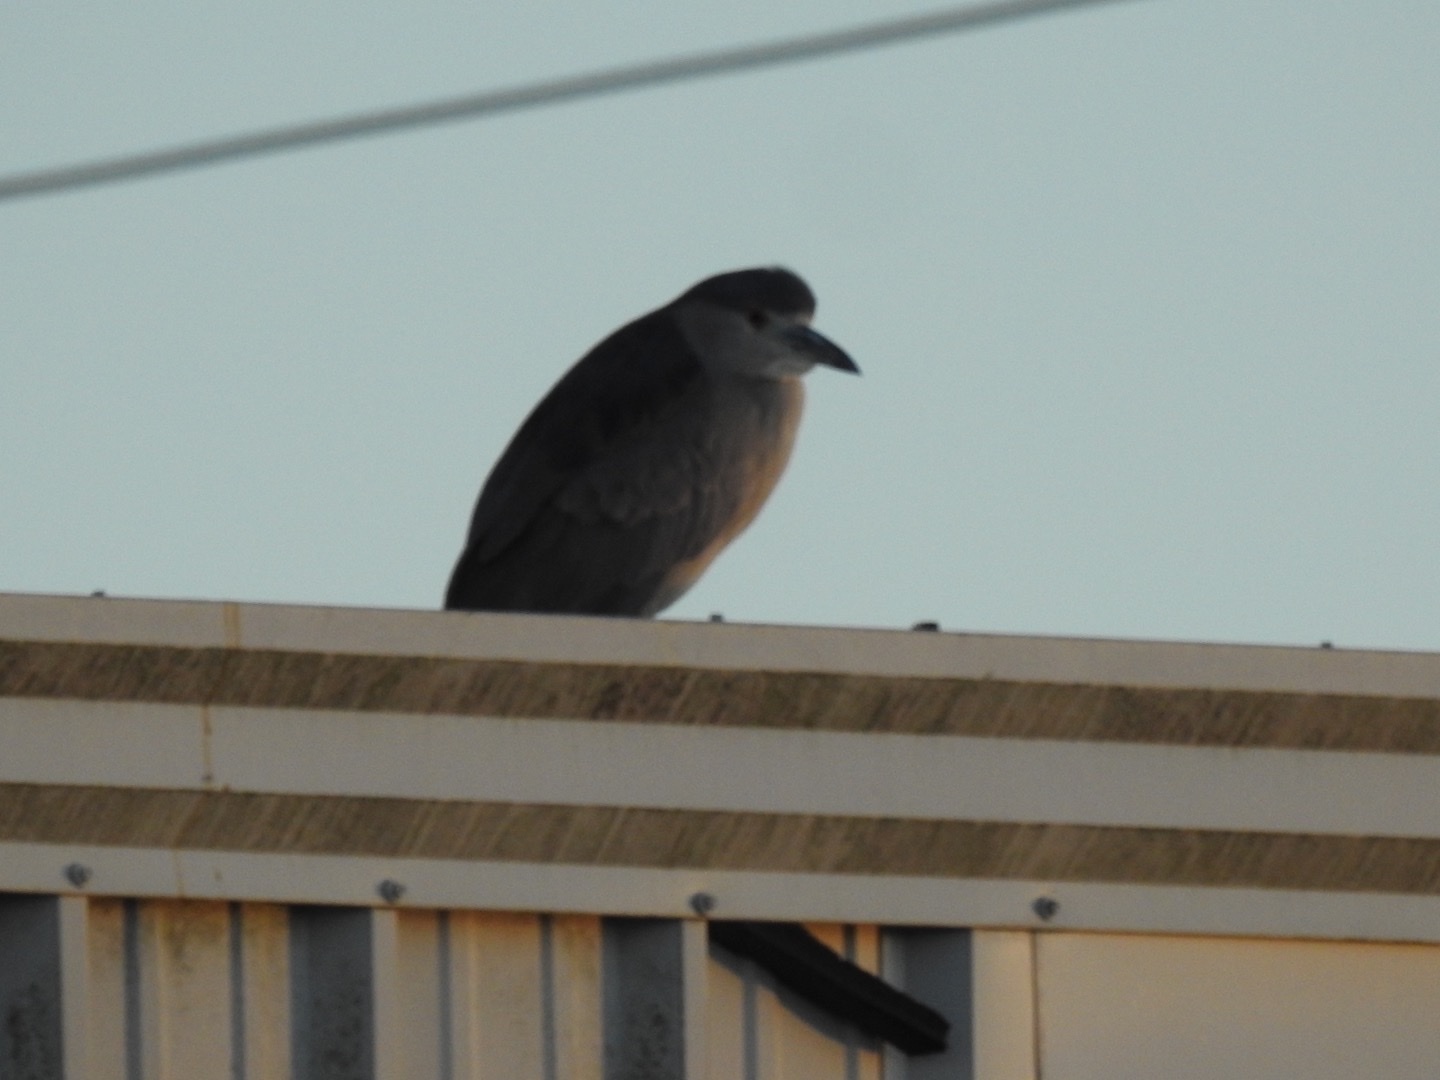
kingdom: Animalia
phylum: Chordata
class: Aves
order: Pelecaniformes
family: Ardeidae
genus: Nycticorax
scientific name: Nycticorax nycticorax
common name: Black-crowned night heron
